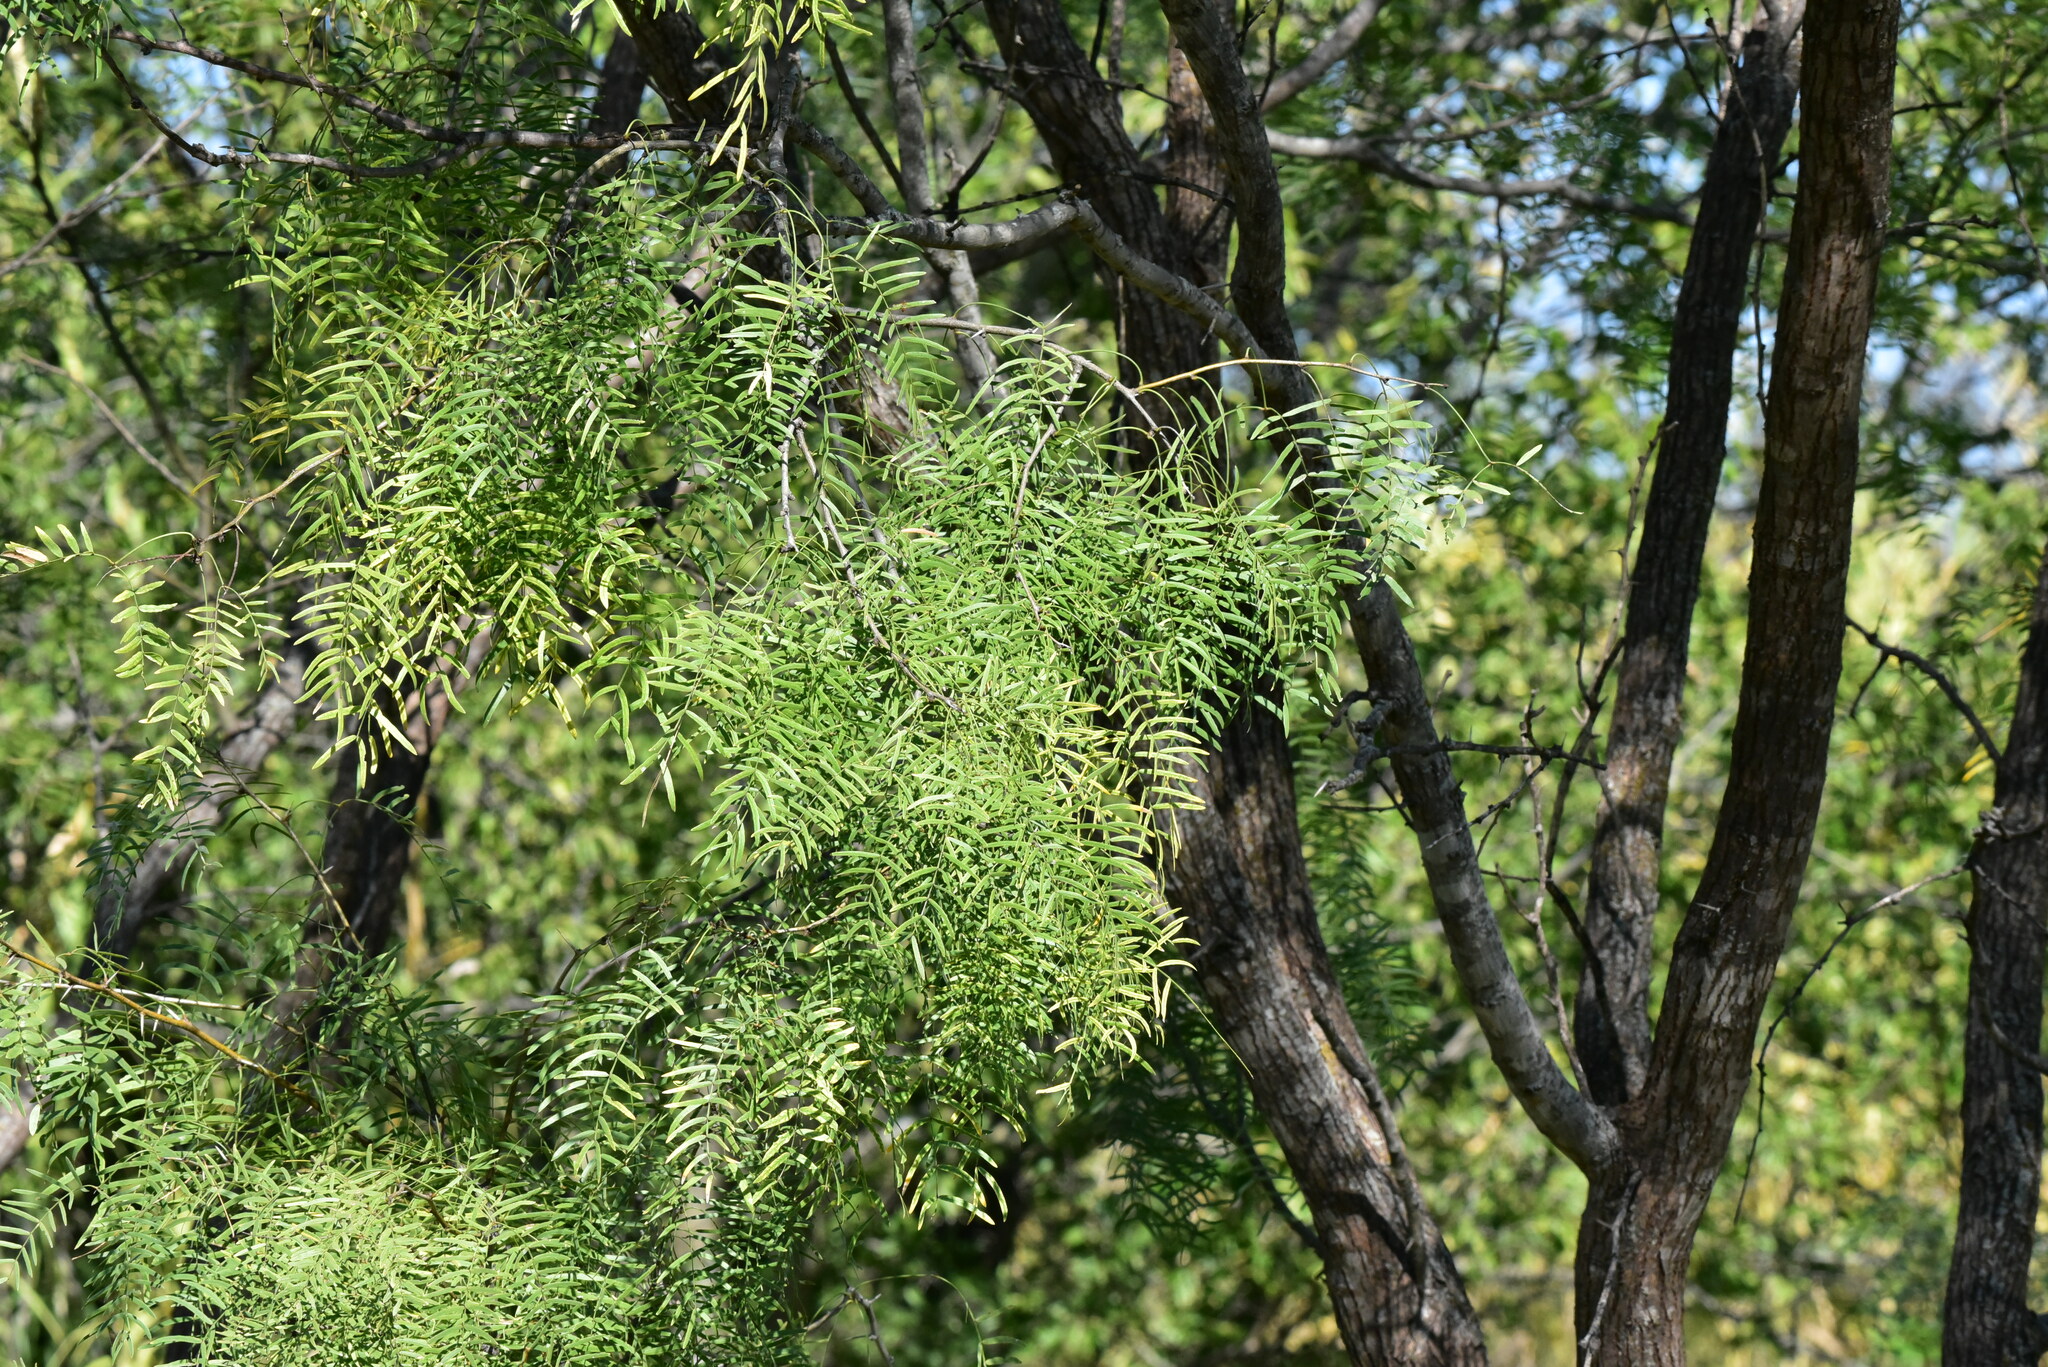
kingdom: Plantae
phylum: Tracheophyta
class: Magnoliopsida
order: Fabales
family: Fabaceae
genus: Prosopis
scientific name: Prosopis glandulosa
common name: Honey mesquite
